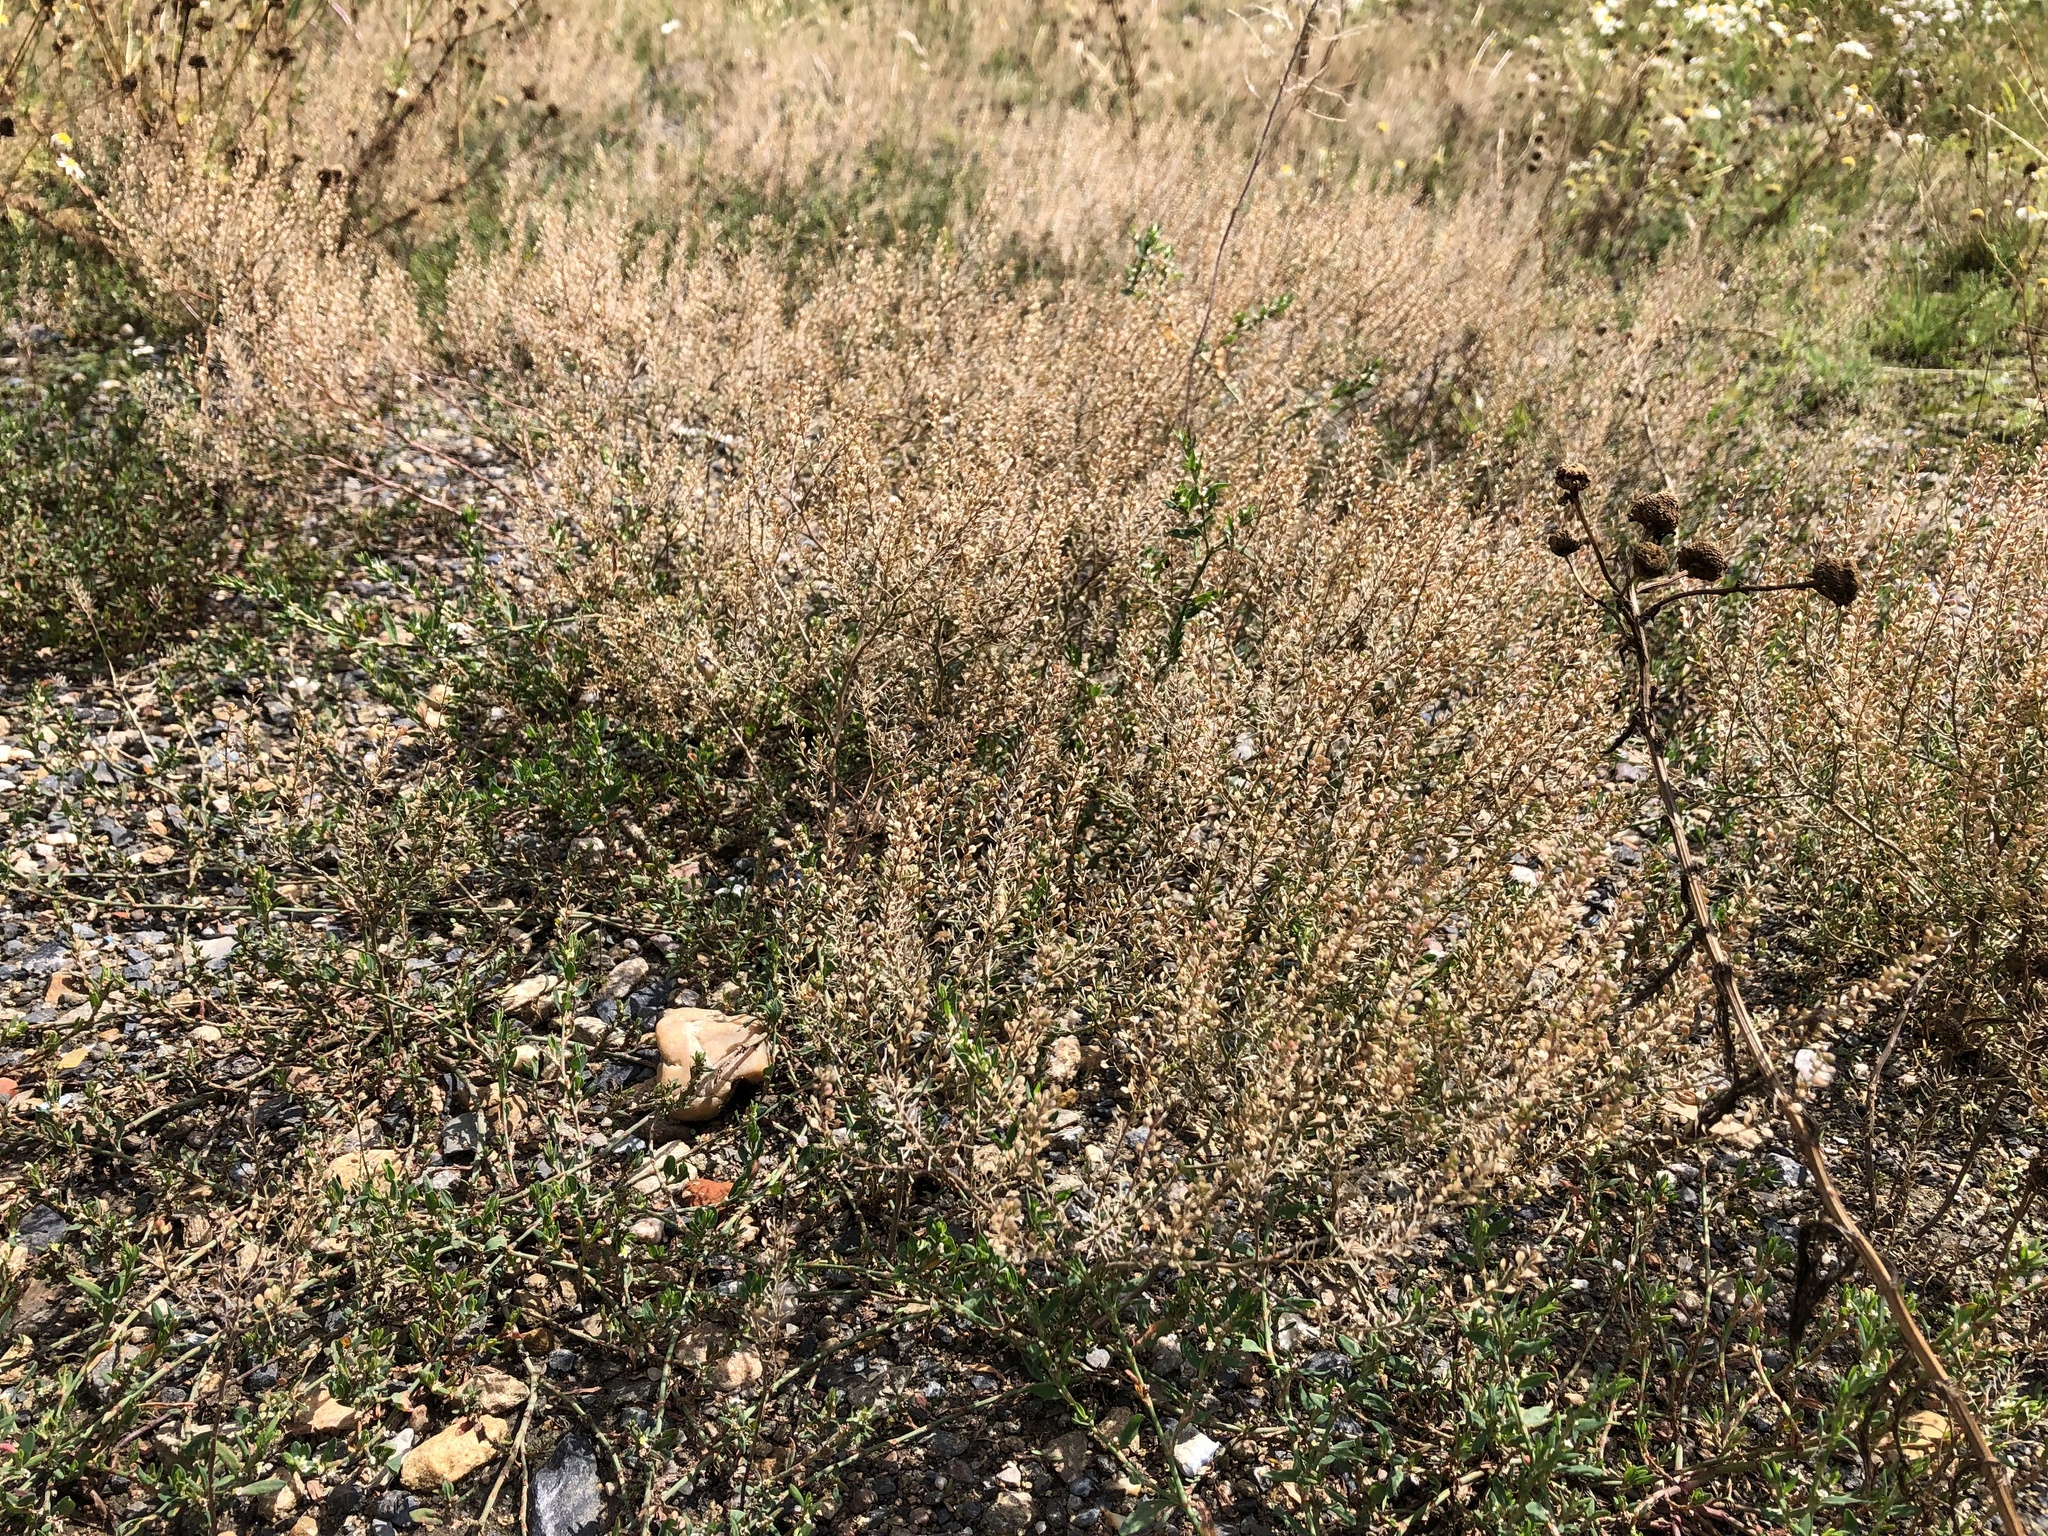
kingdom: Plantae
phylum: Tracheophyta
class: Magnoliopsida
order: Brassicales
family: Brassicaceae
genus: Lepidium
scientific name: Lepidium ruderale
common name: Narrow-leaved pepperwort
